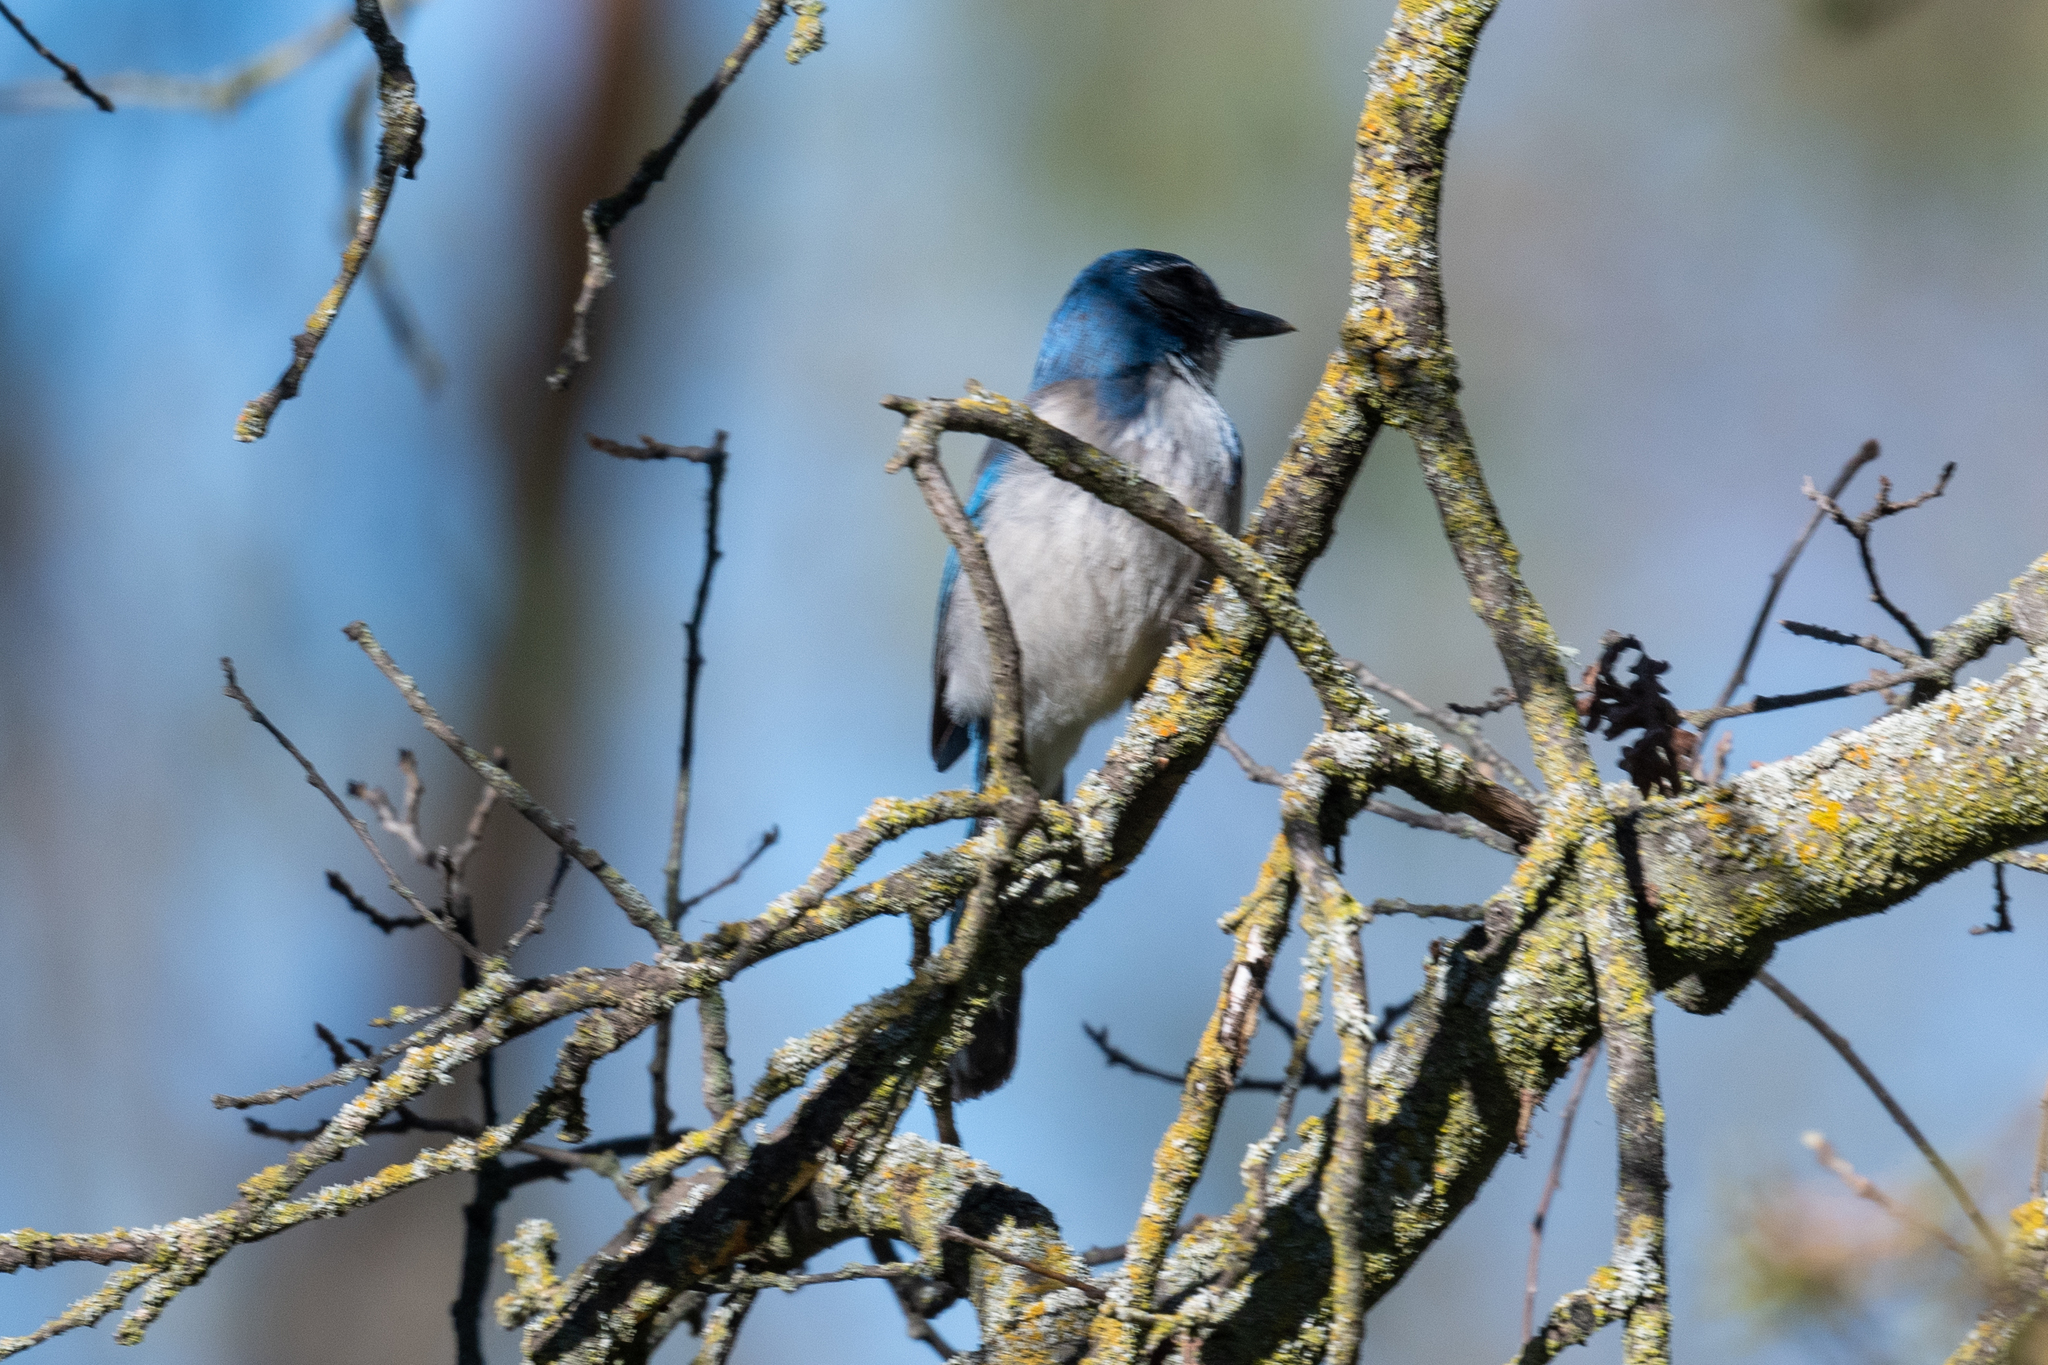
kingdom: Animalia
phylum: Chordata
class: Aves
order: Passeriformes
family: Corvidae
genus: Aphelocoma
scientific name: Aphelocoma californica
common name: California scrub-jay
